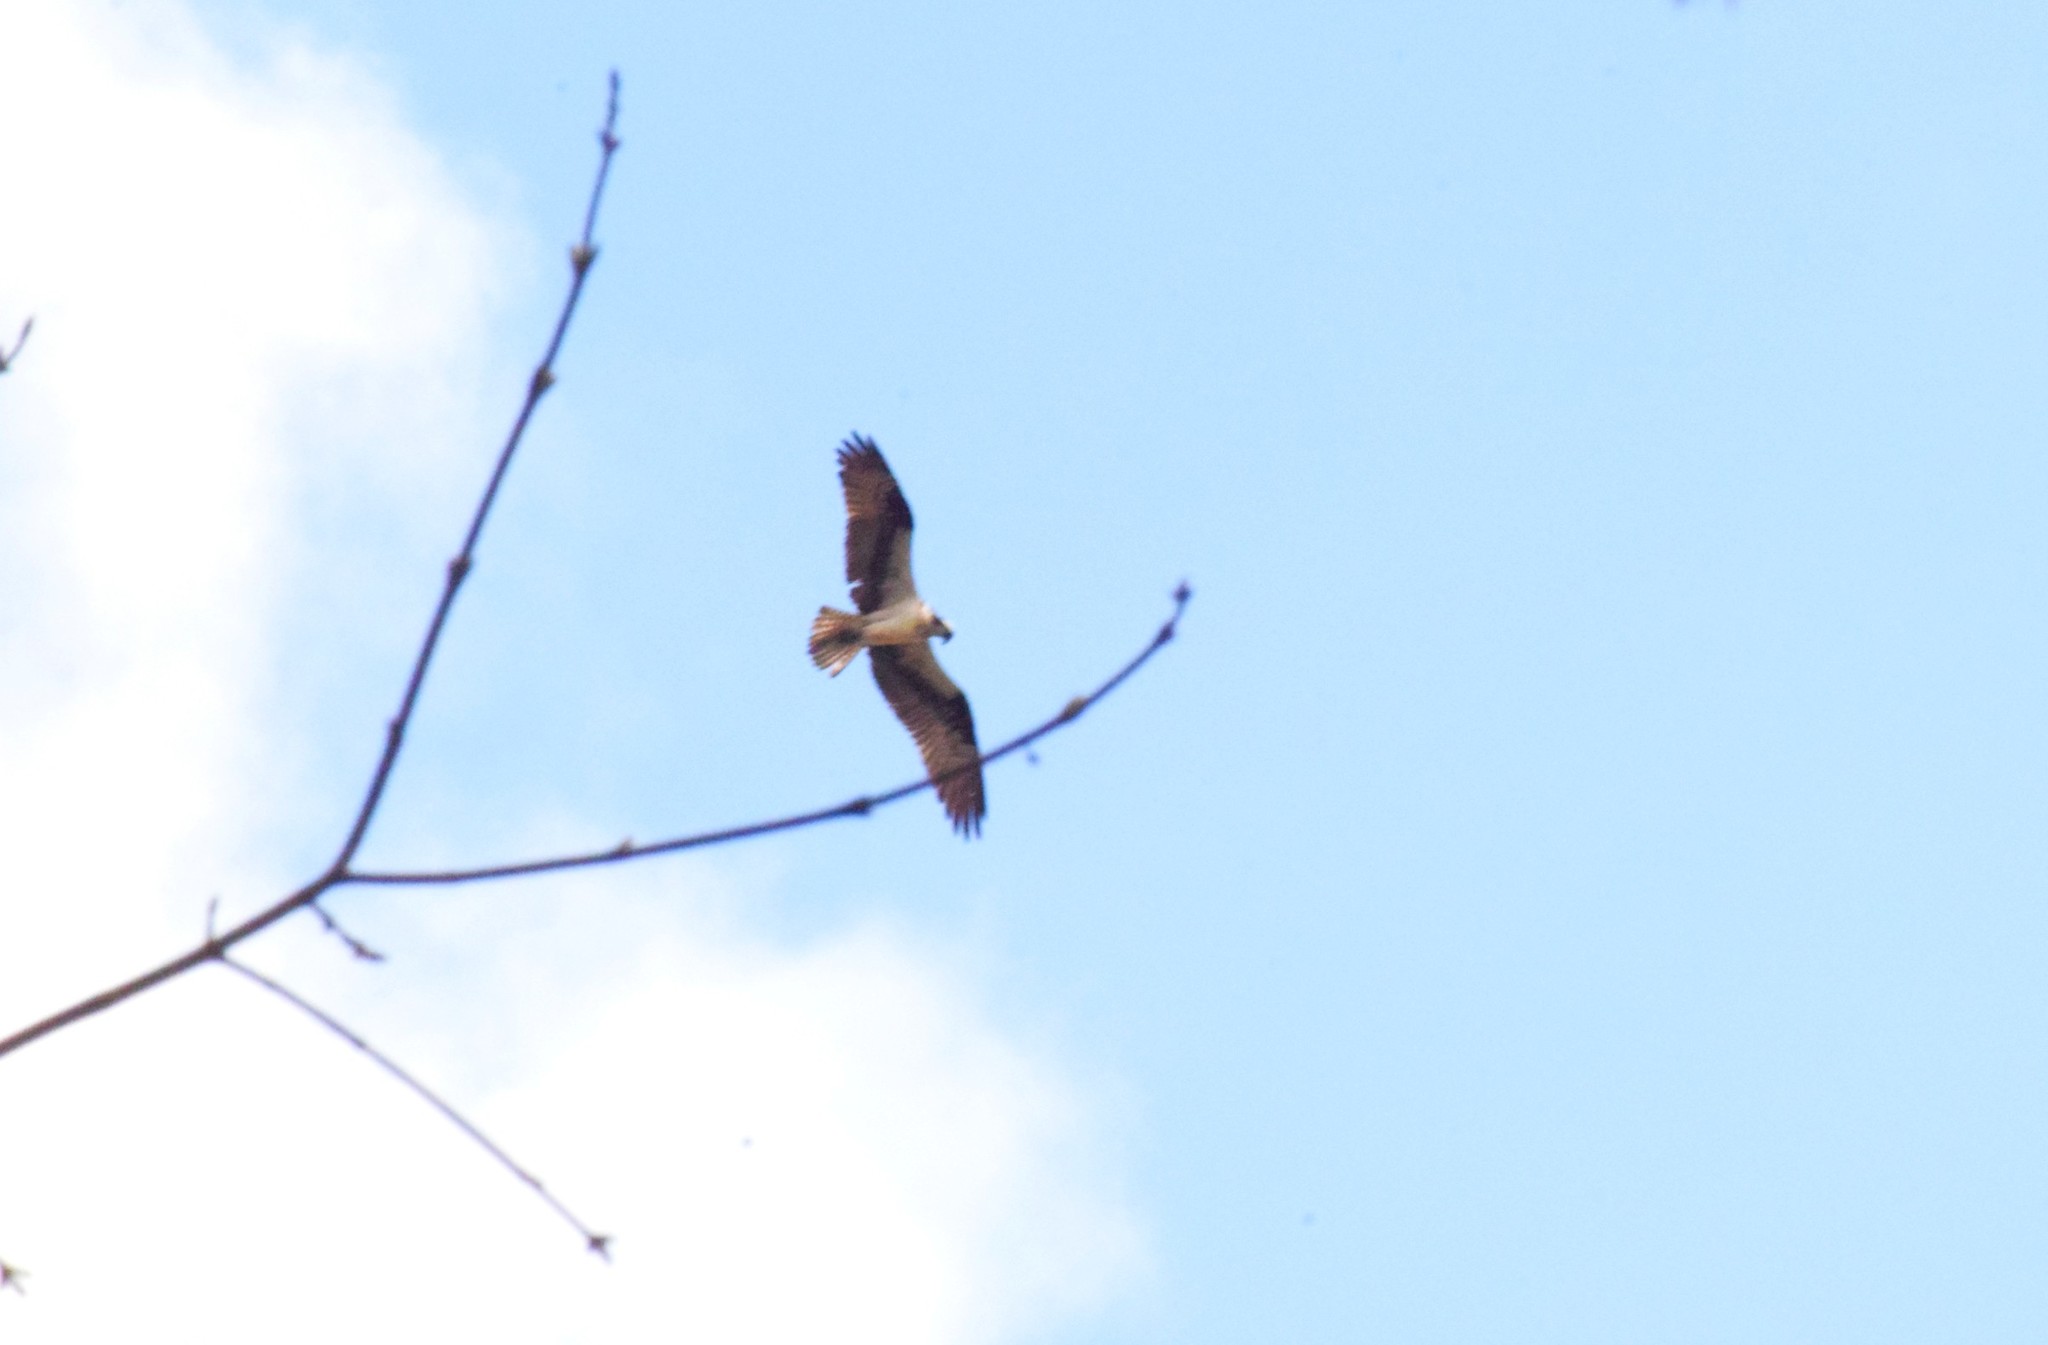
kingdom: Animalia
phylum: Chordata
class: Aves
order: Accipitriformes
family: Pandionidae
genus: Pandion
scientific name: Pandion haliaetus
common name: Osprey
